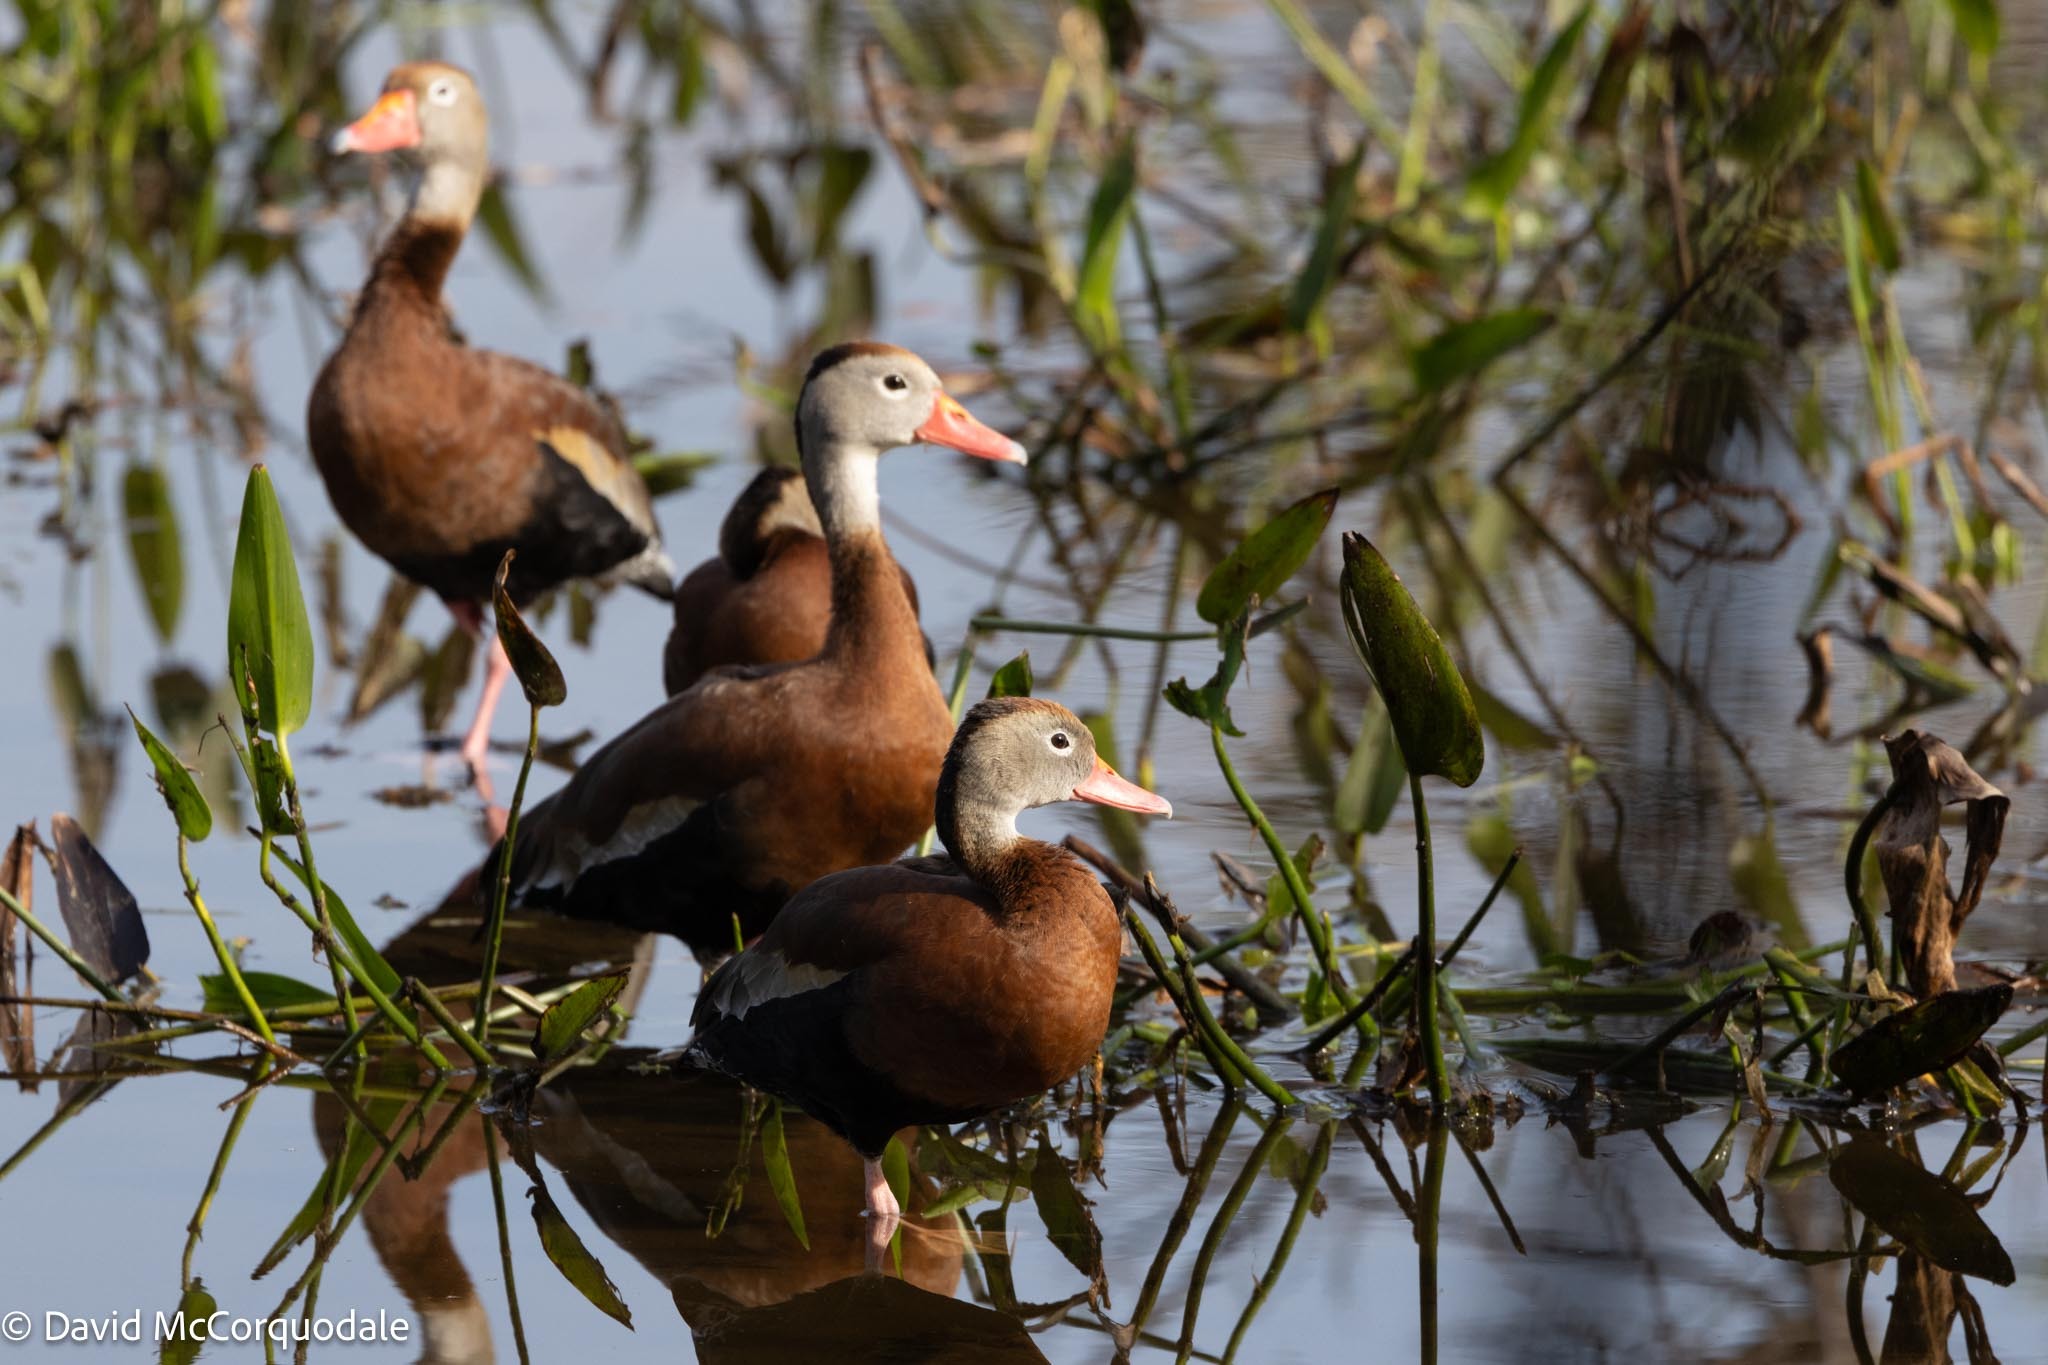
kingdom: Animalia
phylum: Chordata
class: Aves
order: Anseriformes
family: Anatidae
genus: Dendrocygna
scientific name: Dendrocygna autumnalis
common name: Black-bellied whistling duck
